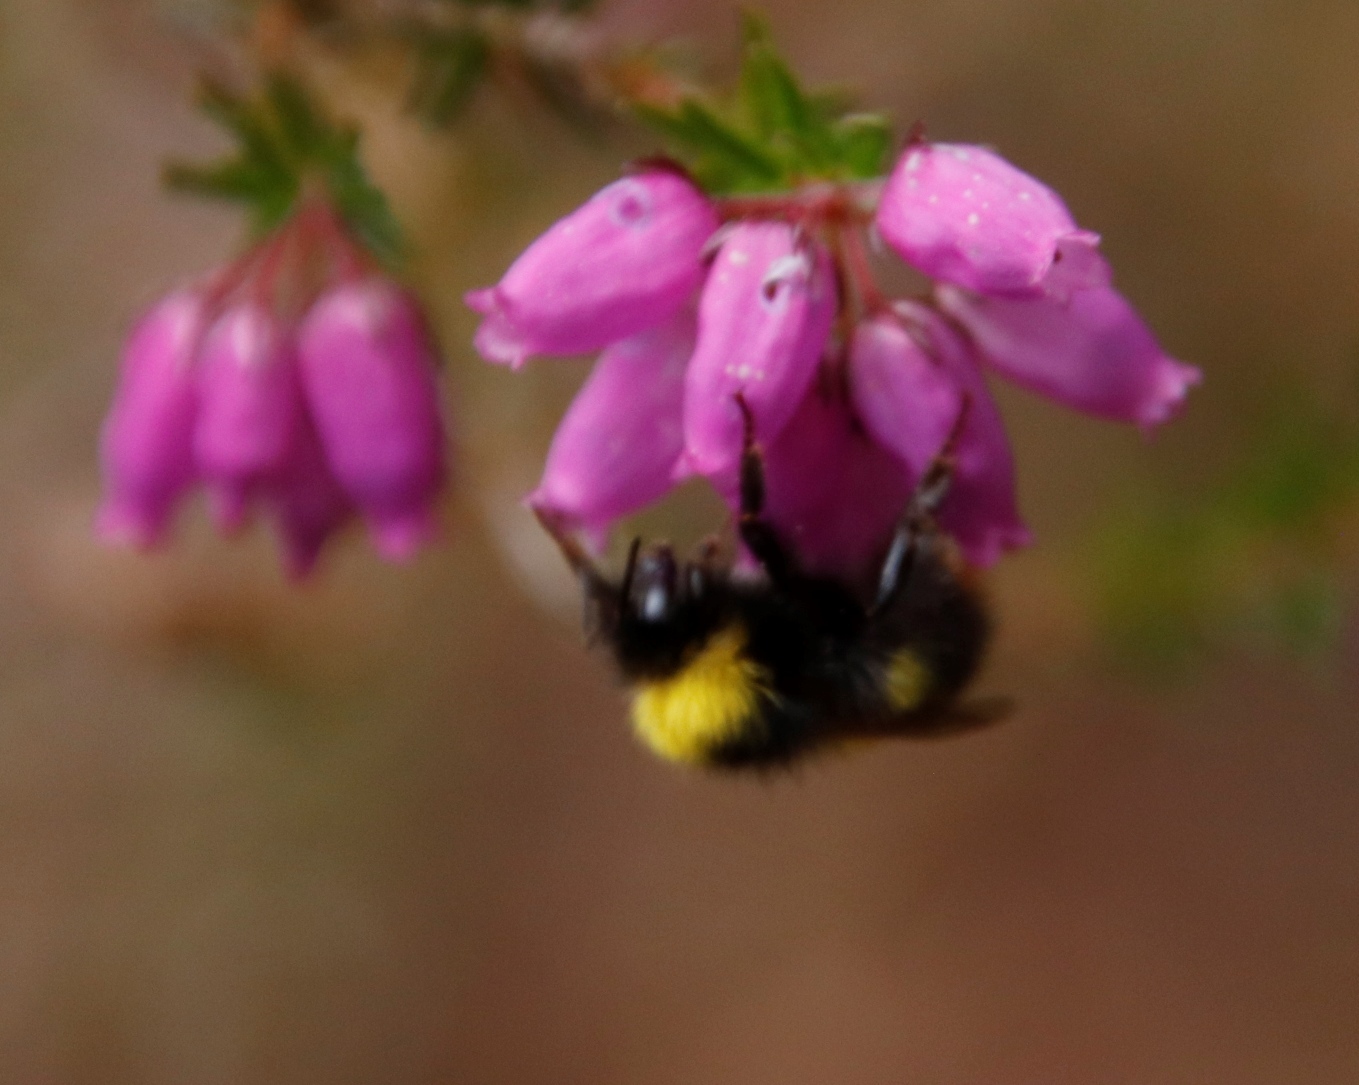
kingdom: Plantae
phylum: Tracheophyta
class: Magnoliopsida
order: Ericales
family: Ericaceae
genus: Erica
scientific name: Erica cinerea
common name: Bell heather
